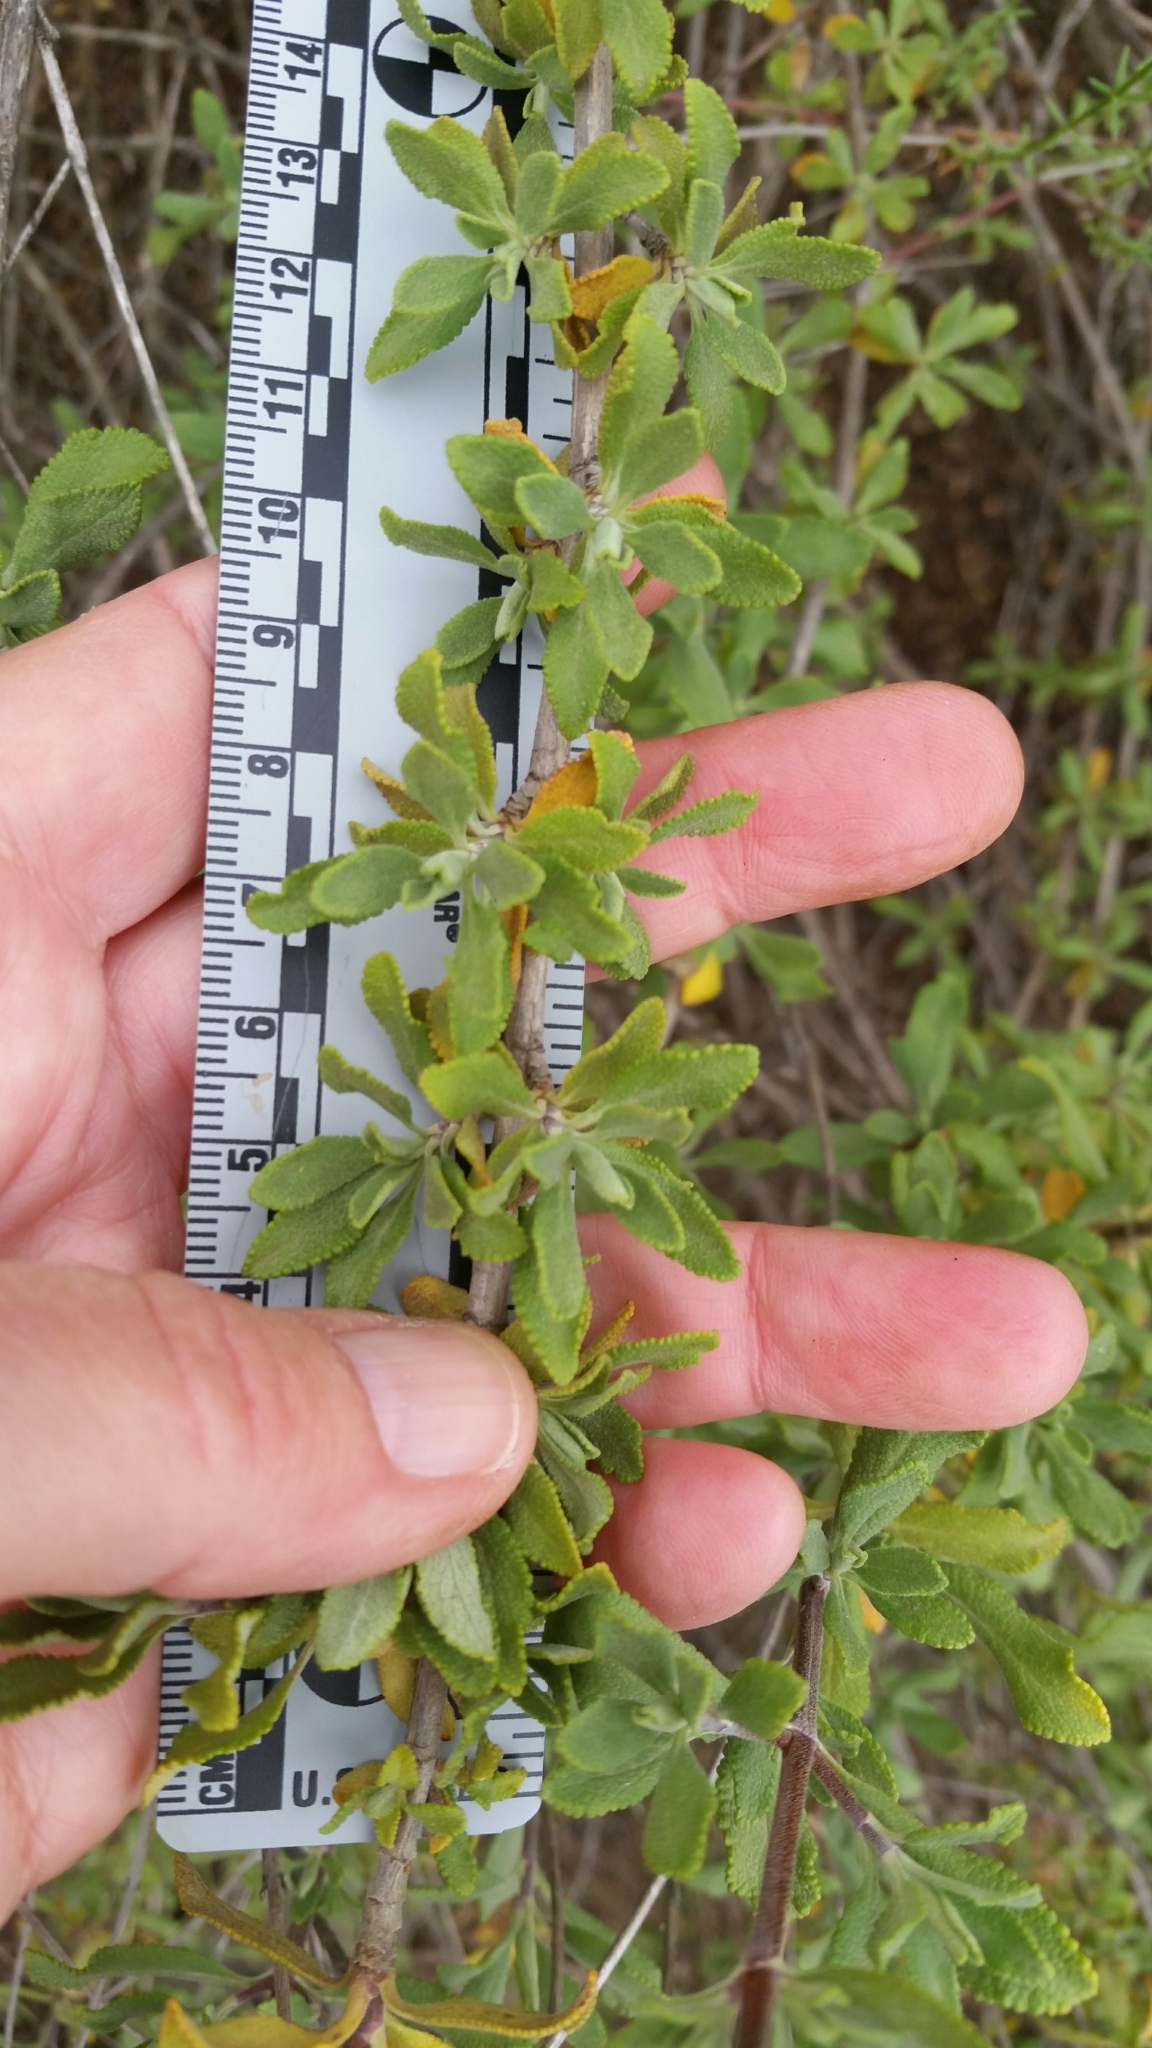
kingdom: Plantae
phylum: Tracheophyta
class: Magnoliopsida
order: Lamiales
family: Lamiaceae
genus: Salvia
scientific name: Salvia munzii
